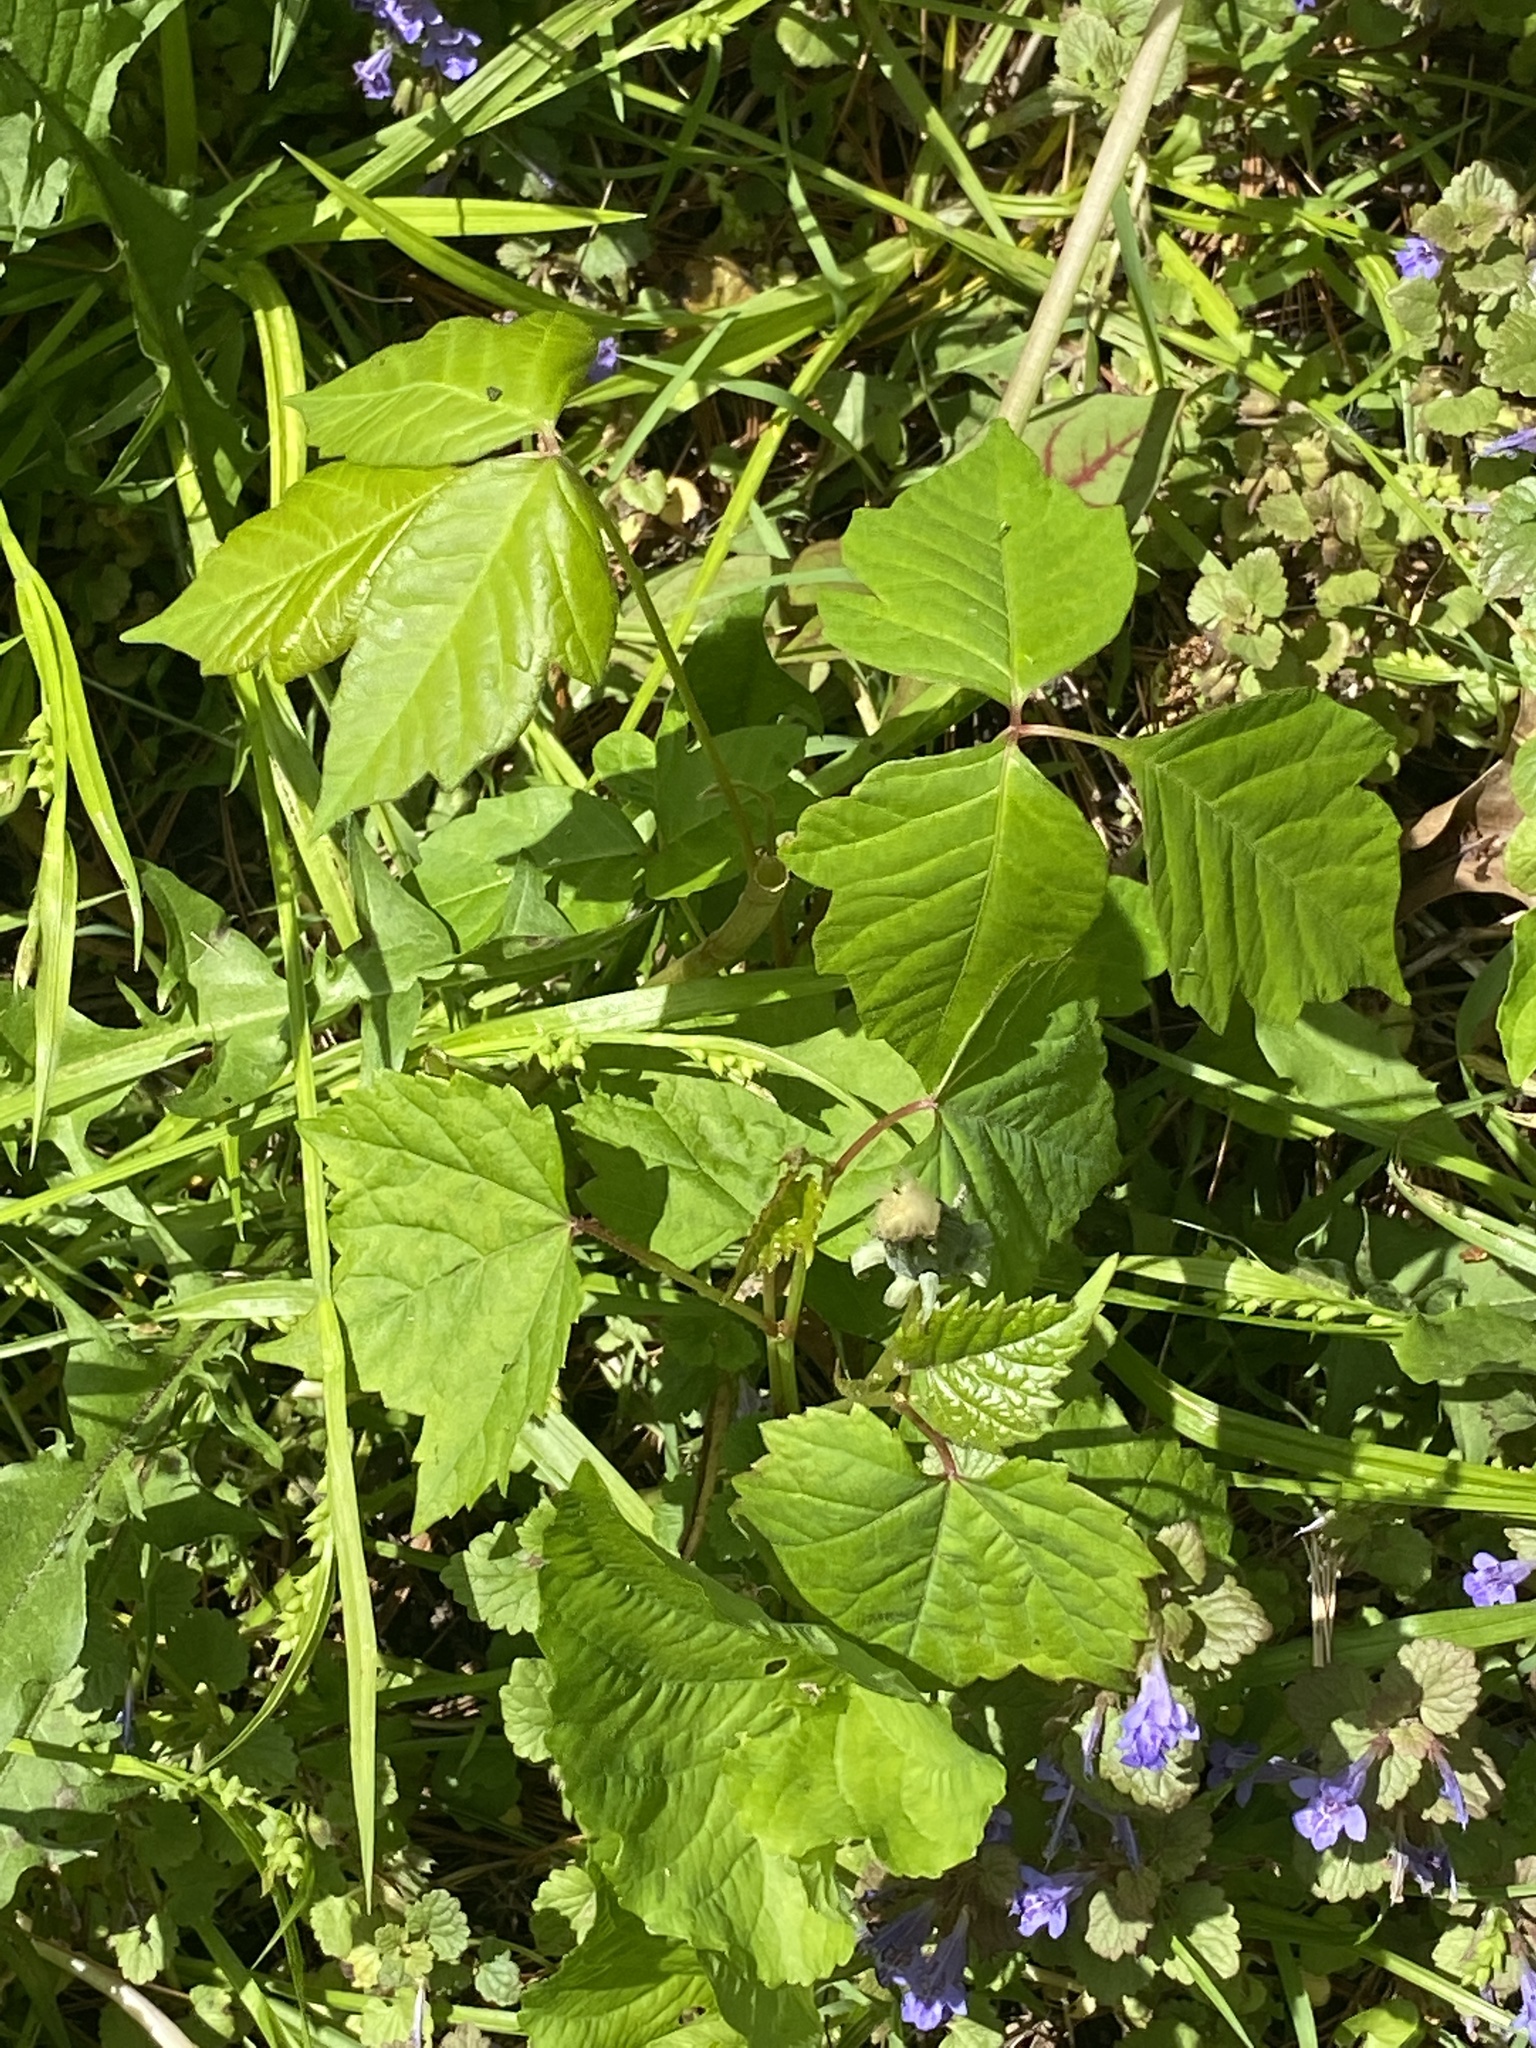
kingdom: Plantae
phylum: Tracheophyta
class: Magnoliopsida
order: Sapindales
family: Anacardiaceae
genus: Toxicodendron
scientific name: Toxicodendron radicans
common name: Poison ivy
